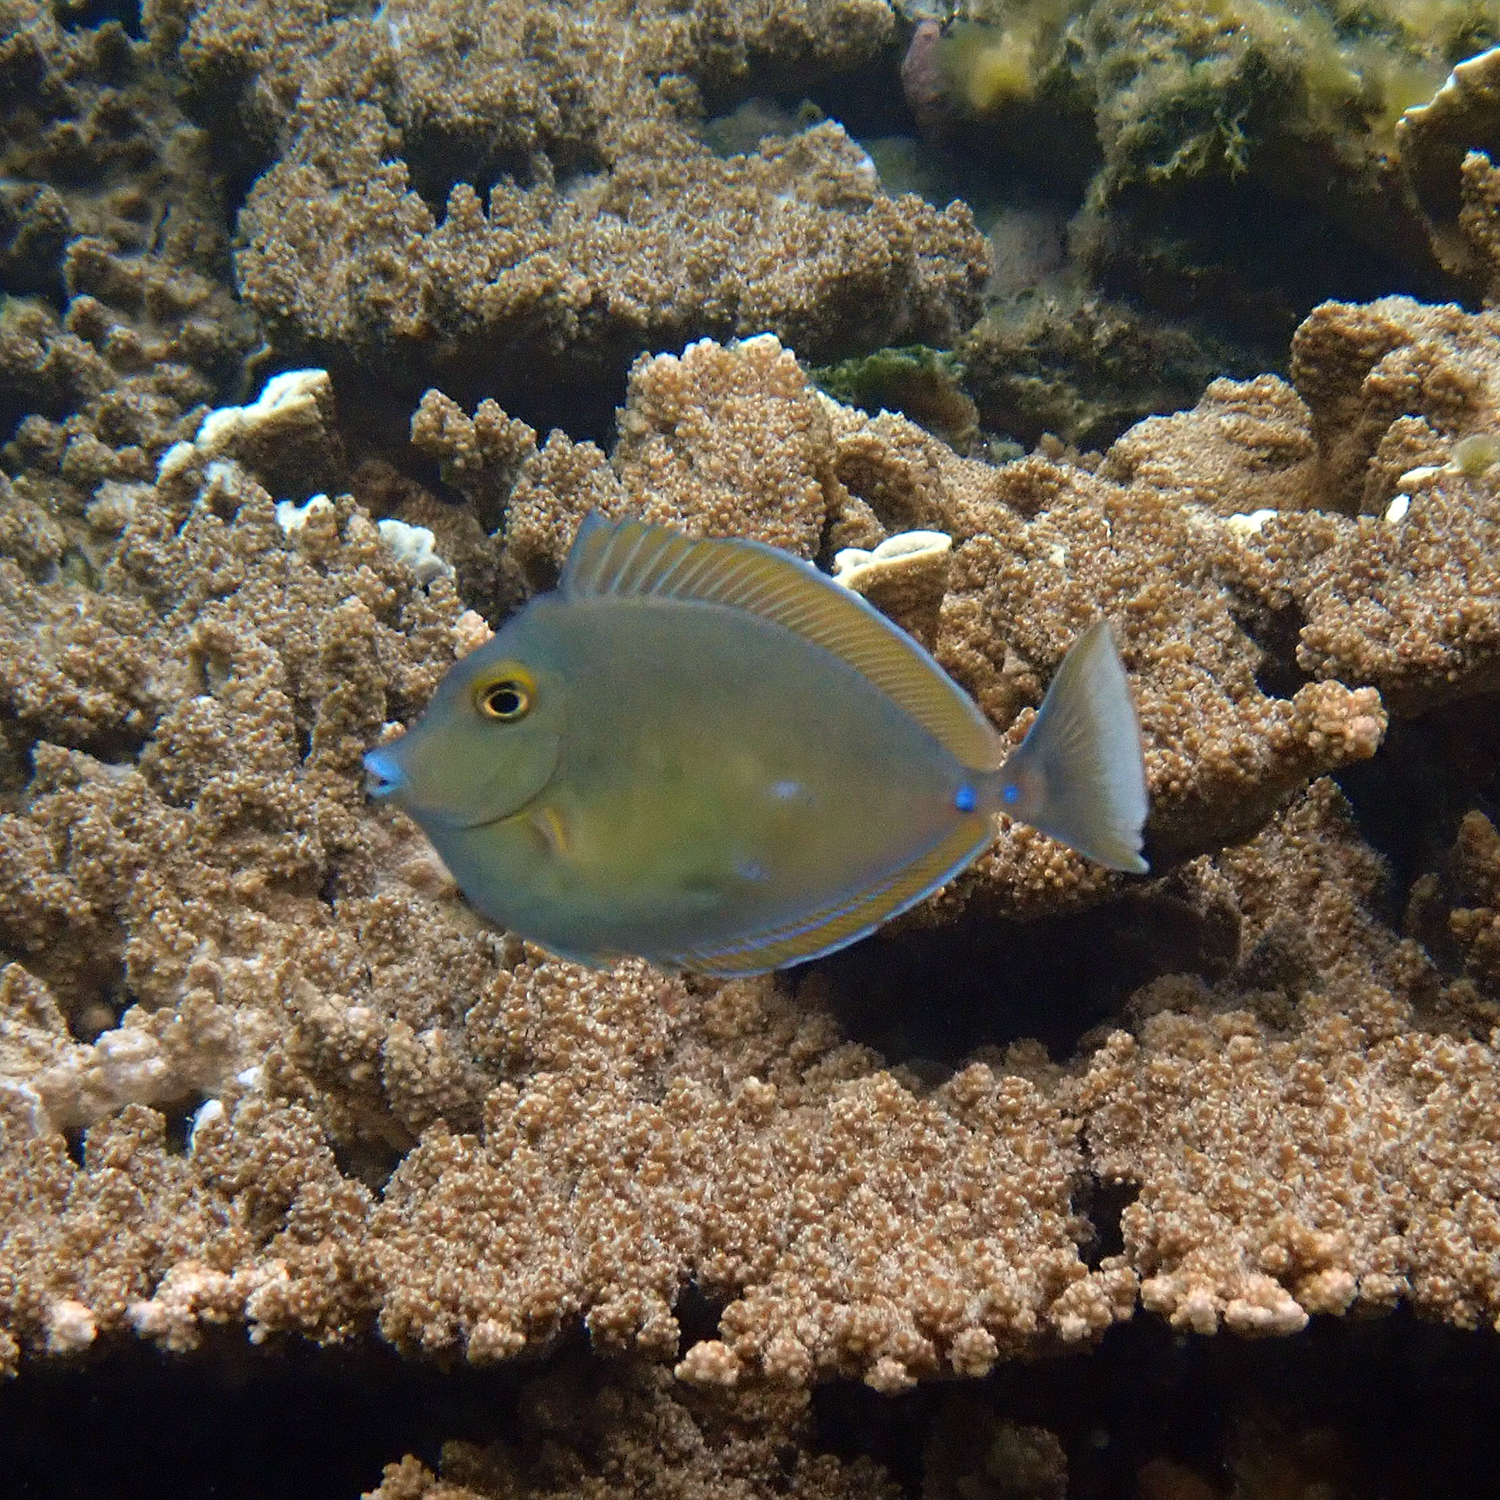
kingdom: Animalia
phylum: Chordata
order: Perciformes
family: Acanthuridae
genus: Naso
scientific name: Naso unicornis
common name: Bluespine unicornfish
